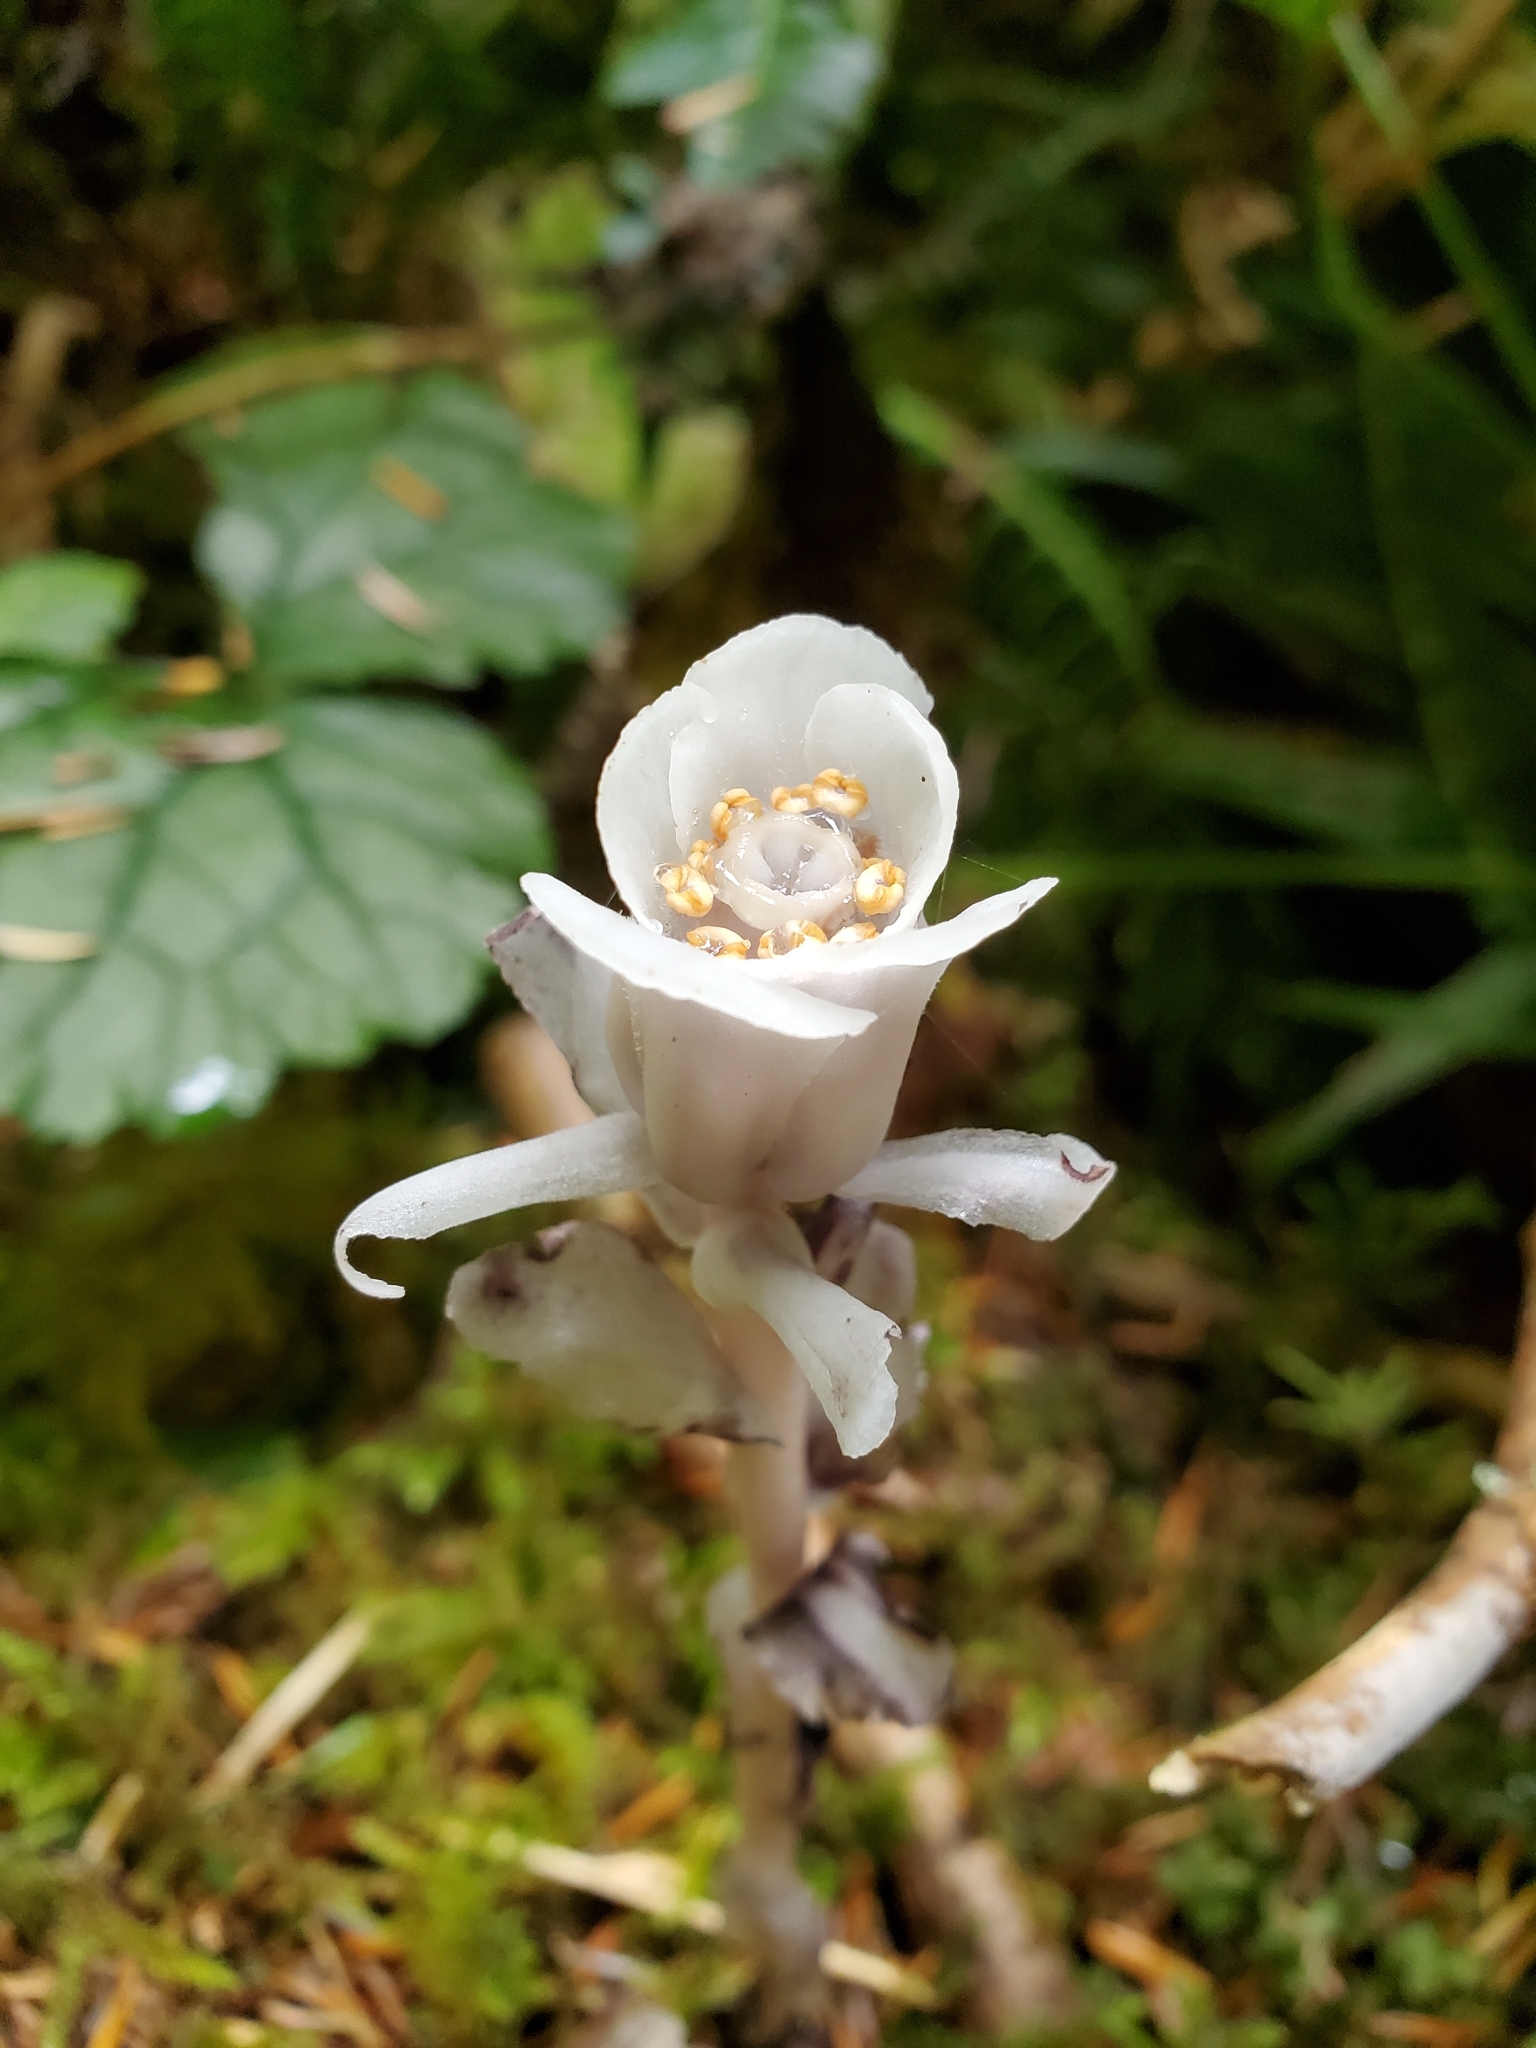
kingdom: Plantae
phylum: Tracheophyta
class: Magnoliopsida
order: Ericales
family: Ericaceae
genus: Monotropa
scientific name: Monotropa uniflora
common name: Convulsion root
